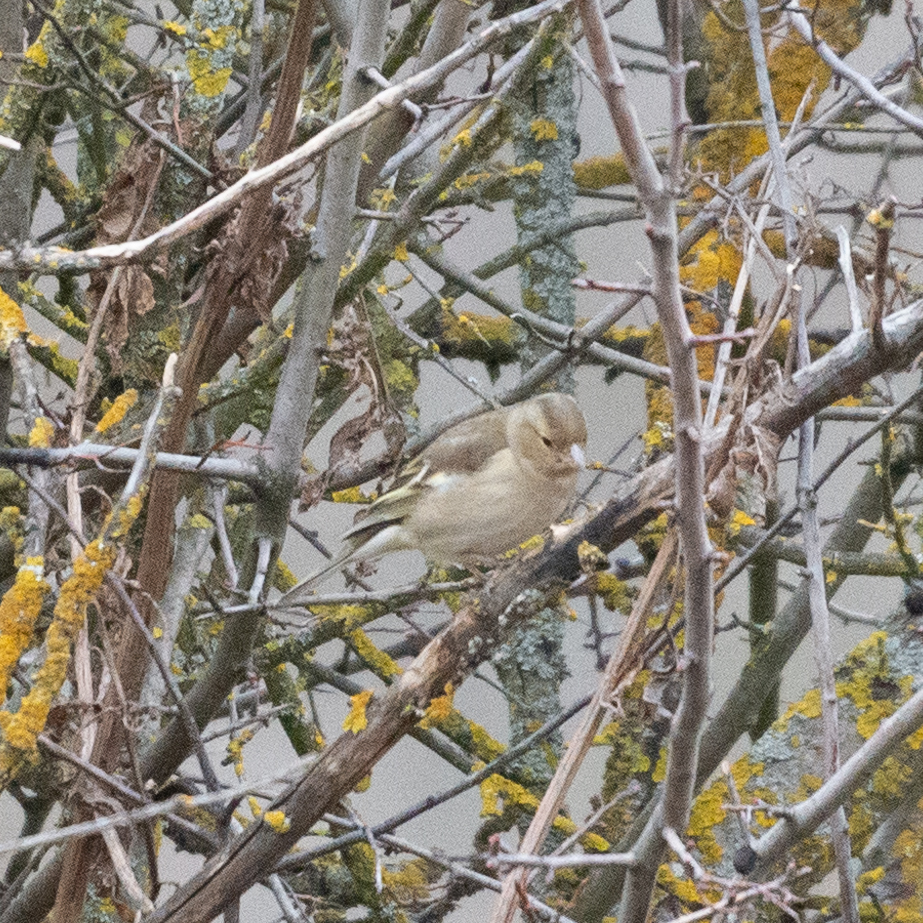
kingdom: Animalia
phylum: Chordata
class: Aves
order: Passeriformes
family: Fringillidae
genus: Fringilla
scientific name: Fringilla coelebs
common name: Common chaffinch
